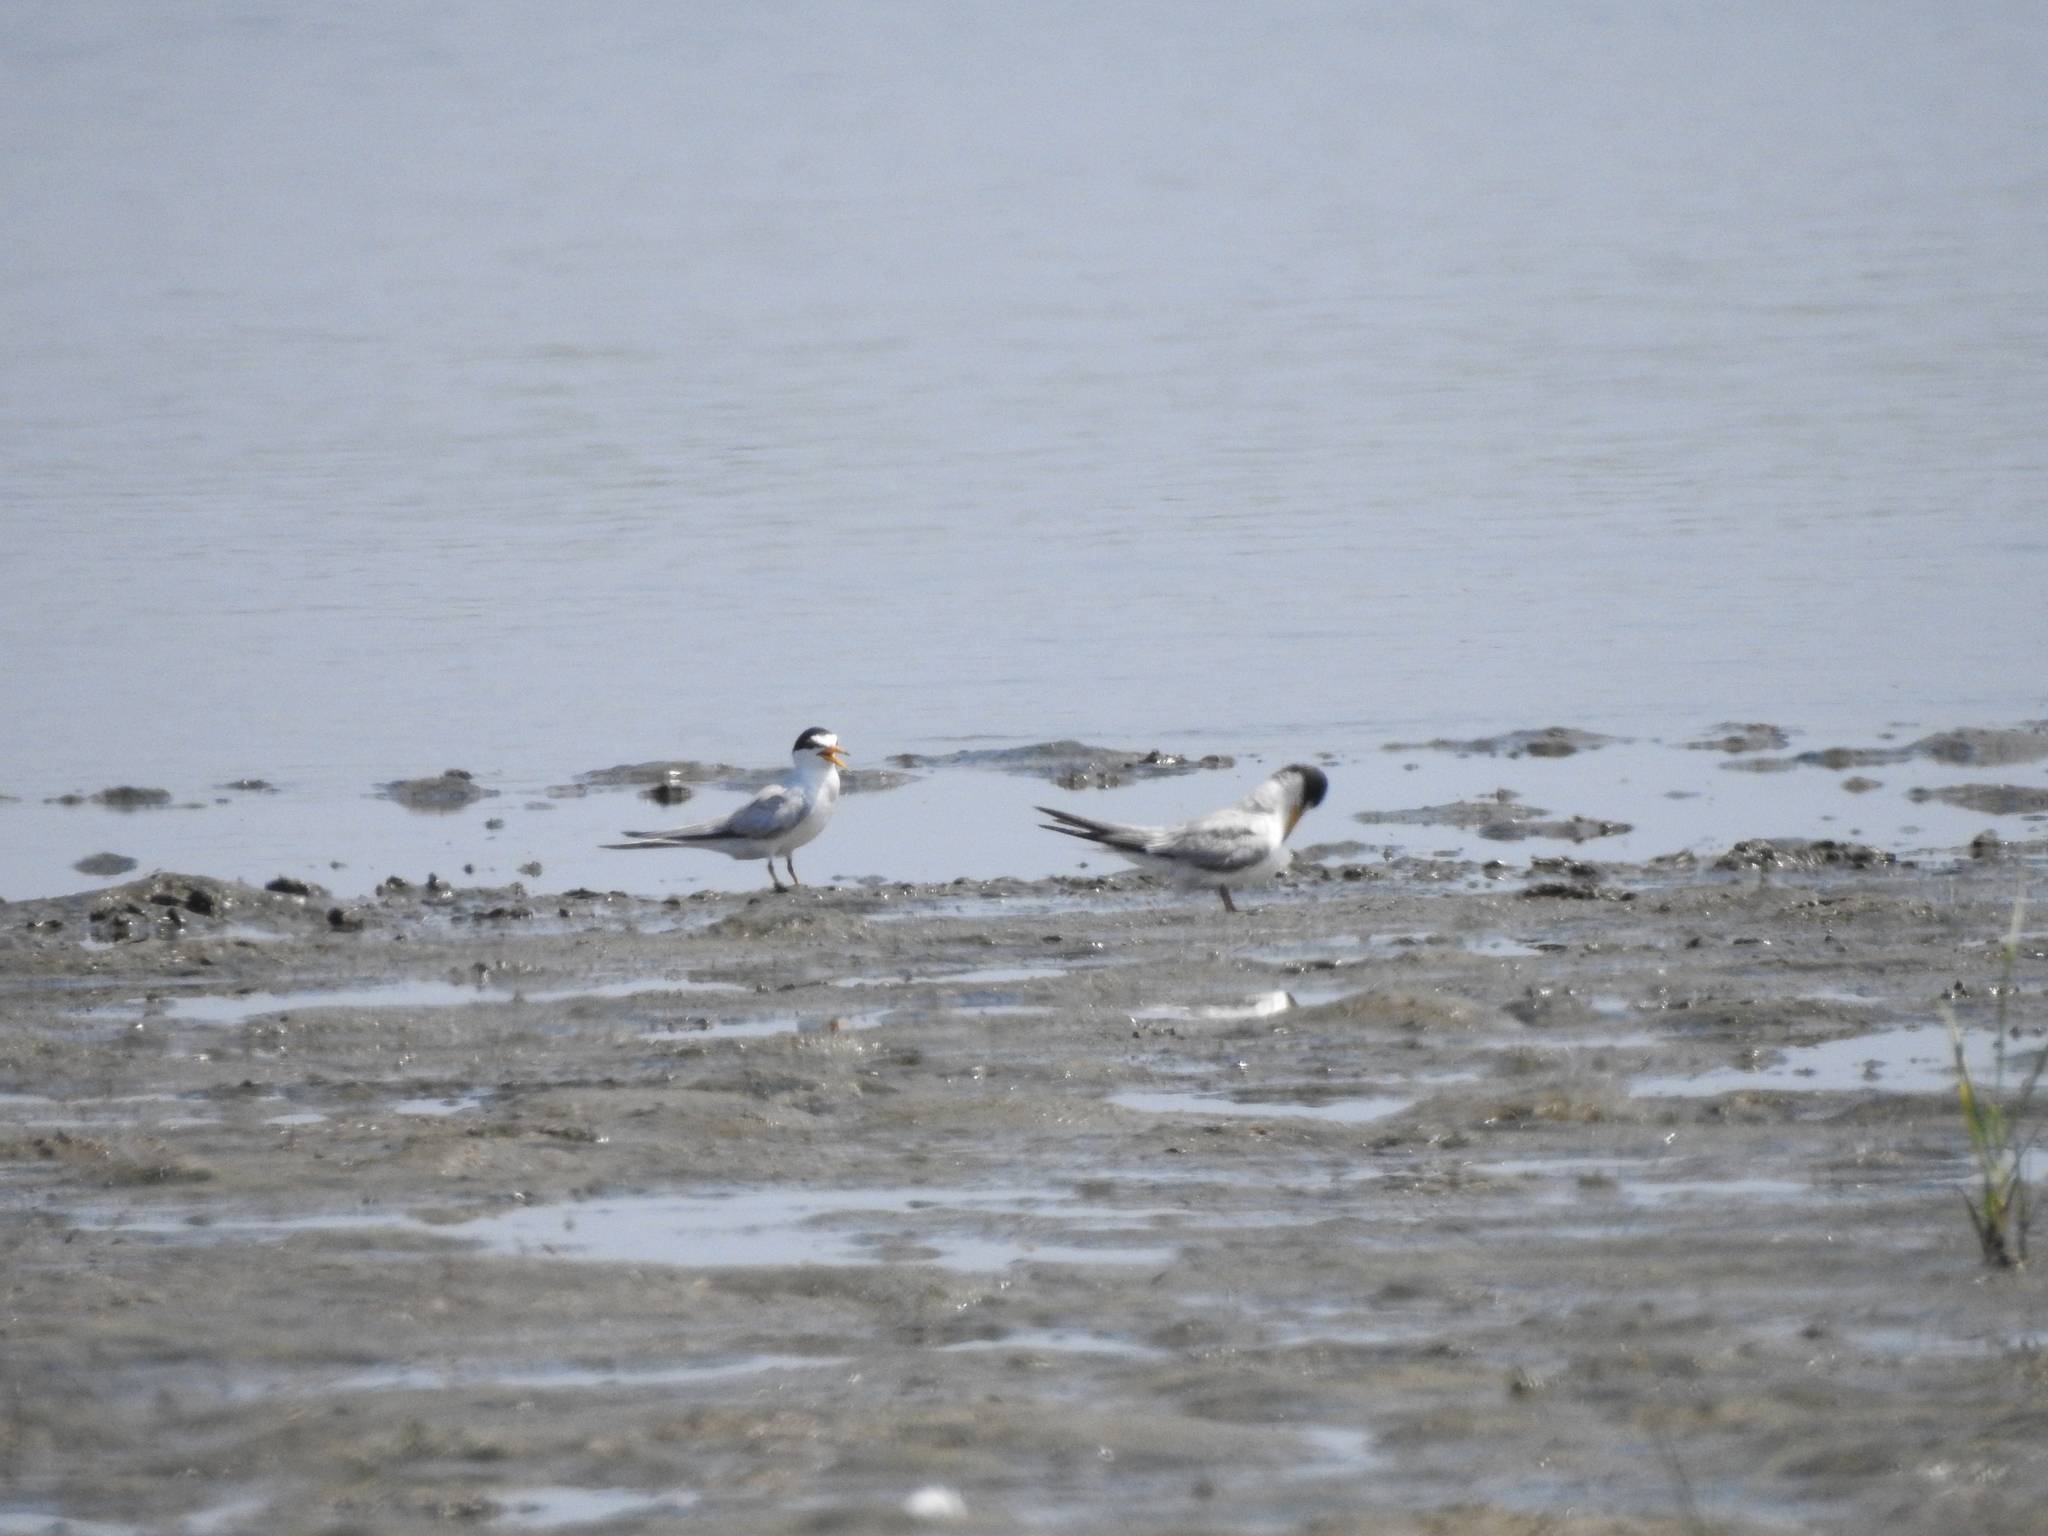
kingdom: Animalia
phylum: Chordata
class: Aves
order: Charadriiformes
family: Laridae
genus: Sternula
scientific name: Sternula antillarum
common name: Least tern
